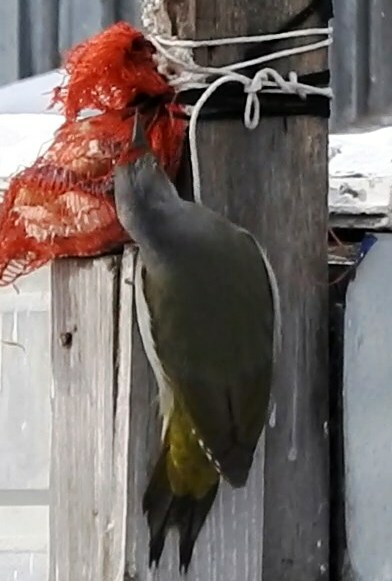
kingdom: Animalia
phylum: Chordata
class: Aves
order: Piciformes
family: Picidae
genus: Picus
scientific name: Picus canus
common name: Grey-headed woodpecker
